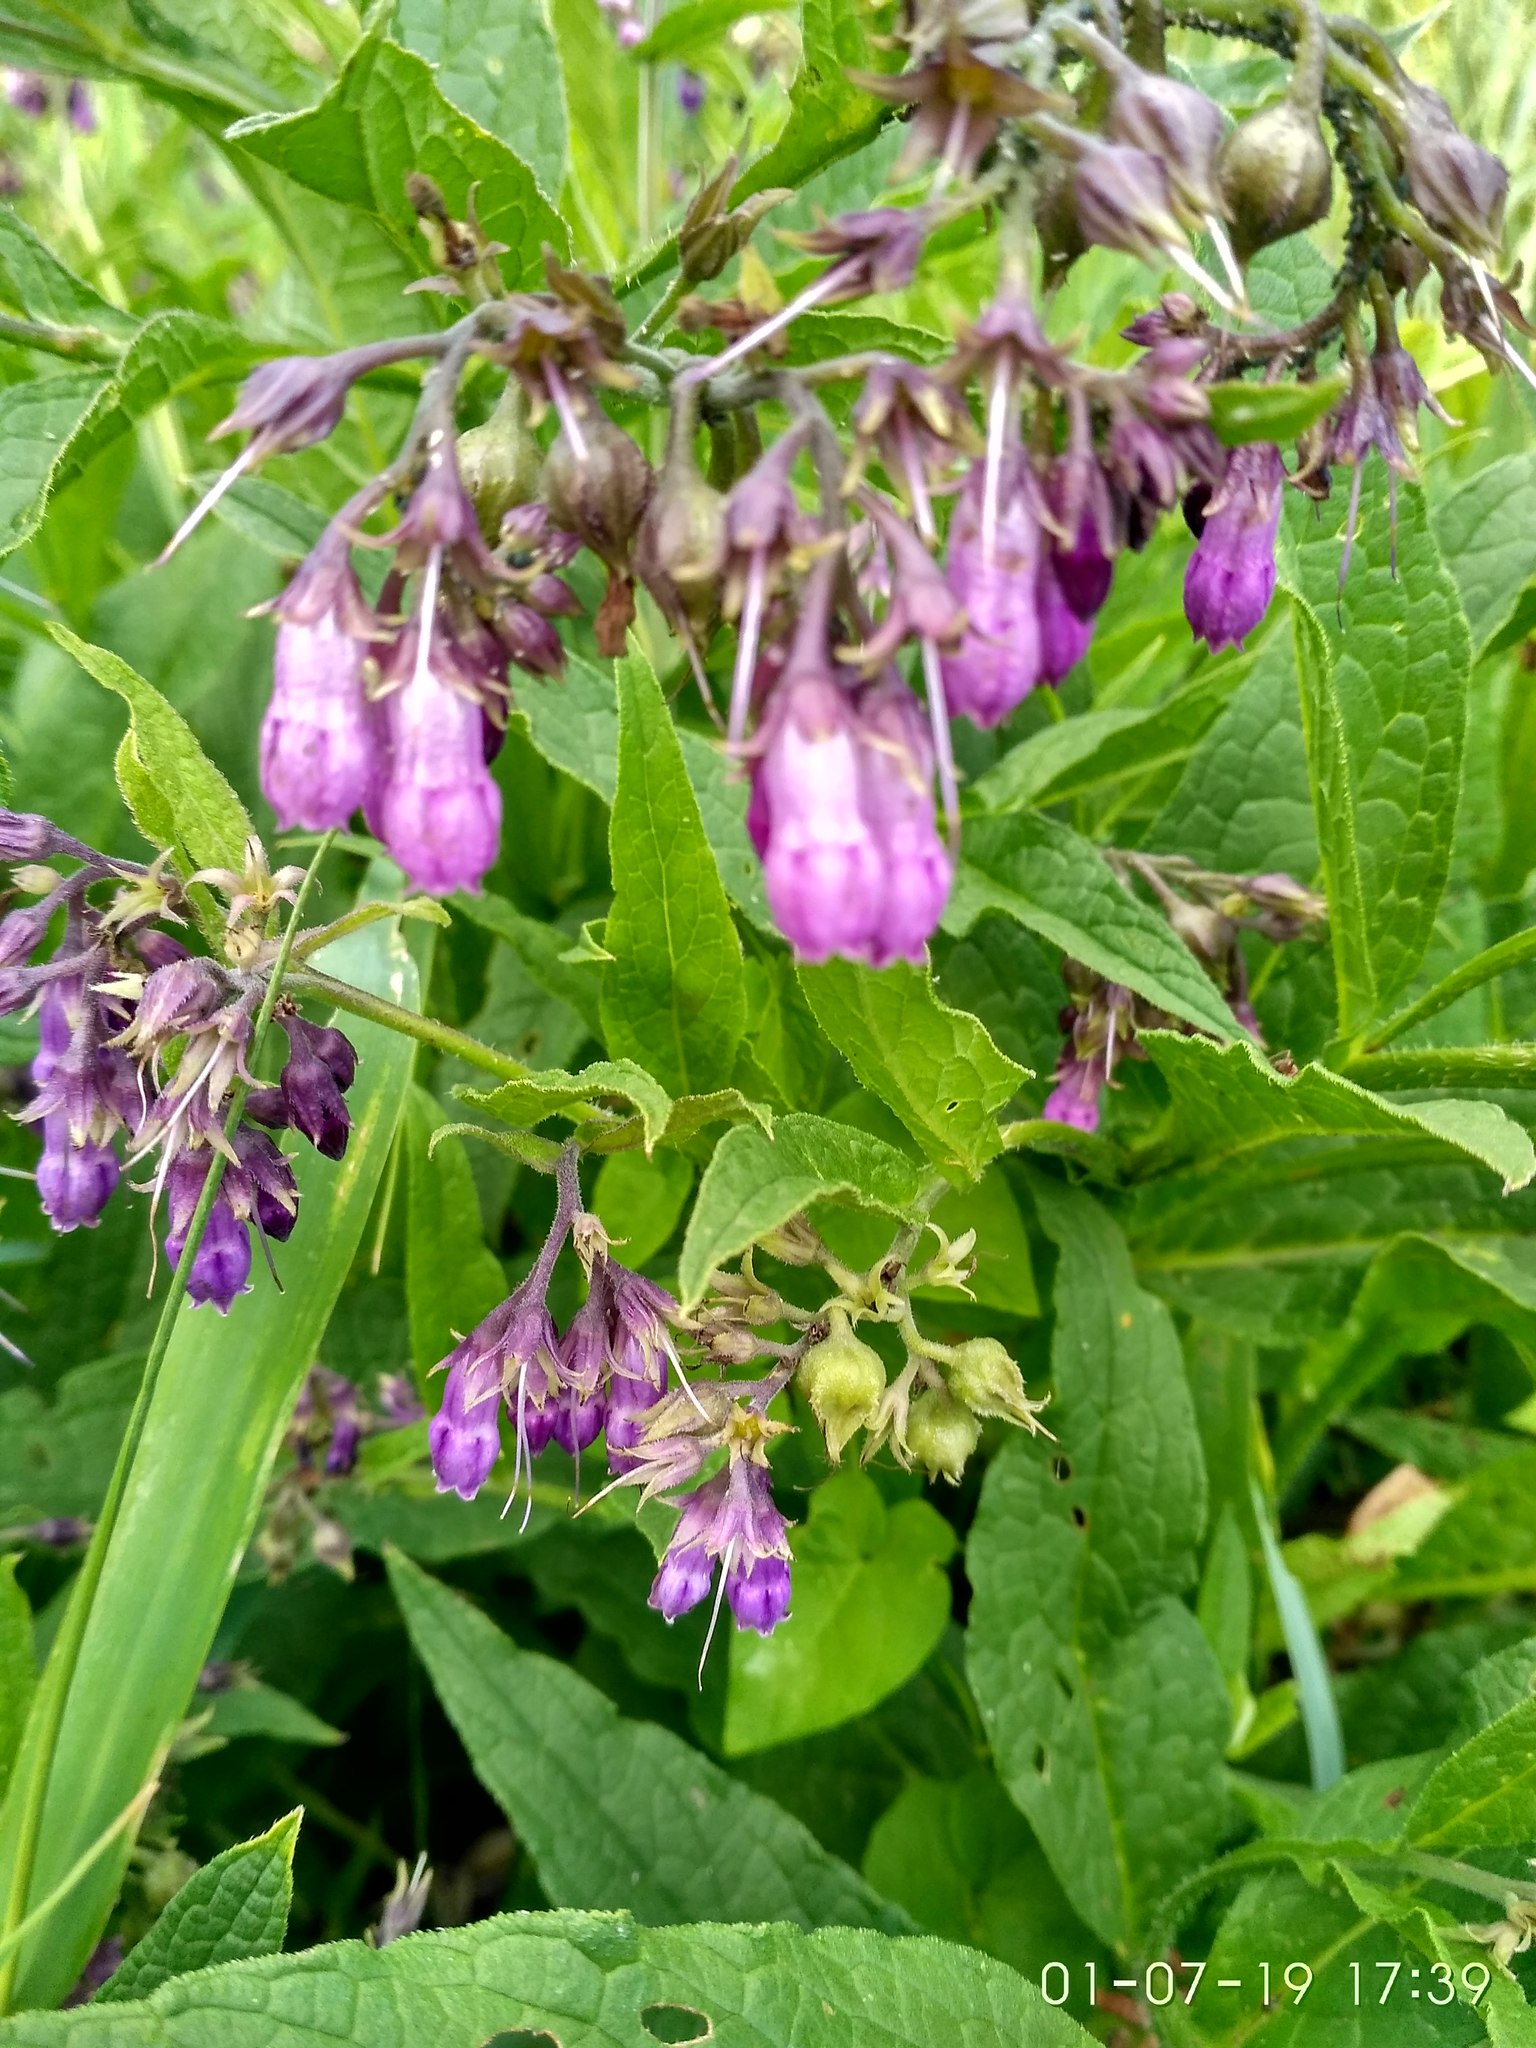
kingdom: Plantae
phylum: Tracheophyta
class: Magnoliopsida
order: Boraginales
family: Boraginaceae
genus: Symphytum
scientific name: Symphytum officinale
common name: Common comfrey
